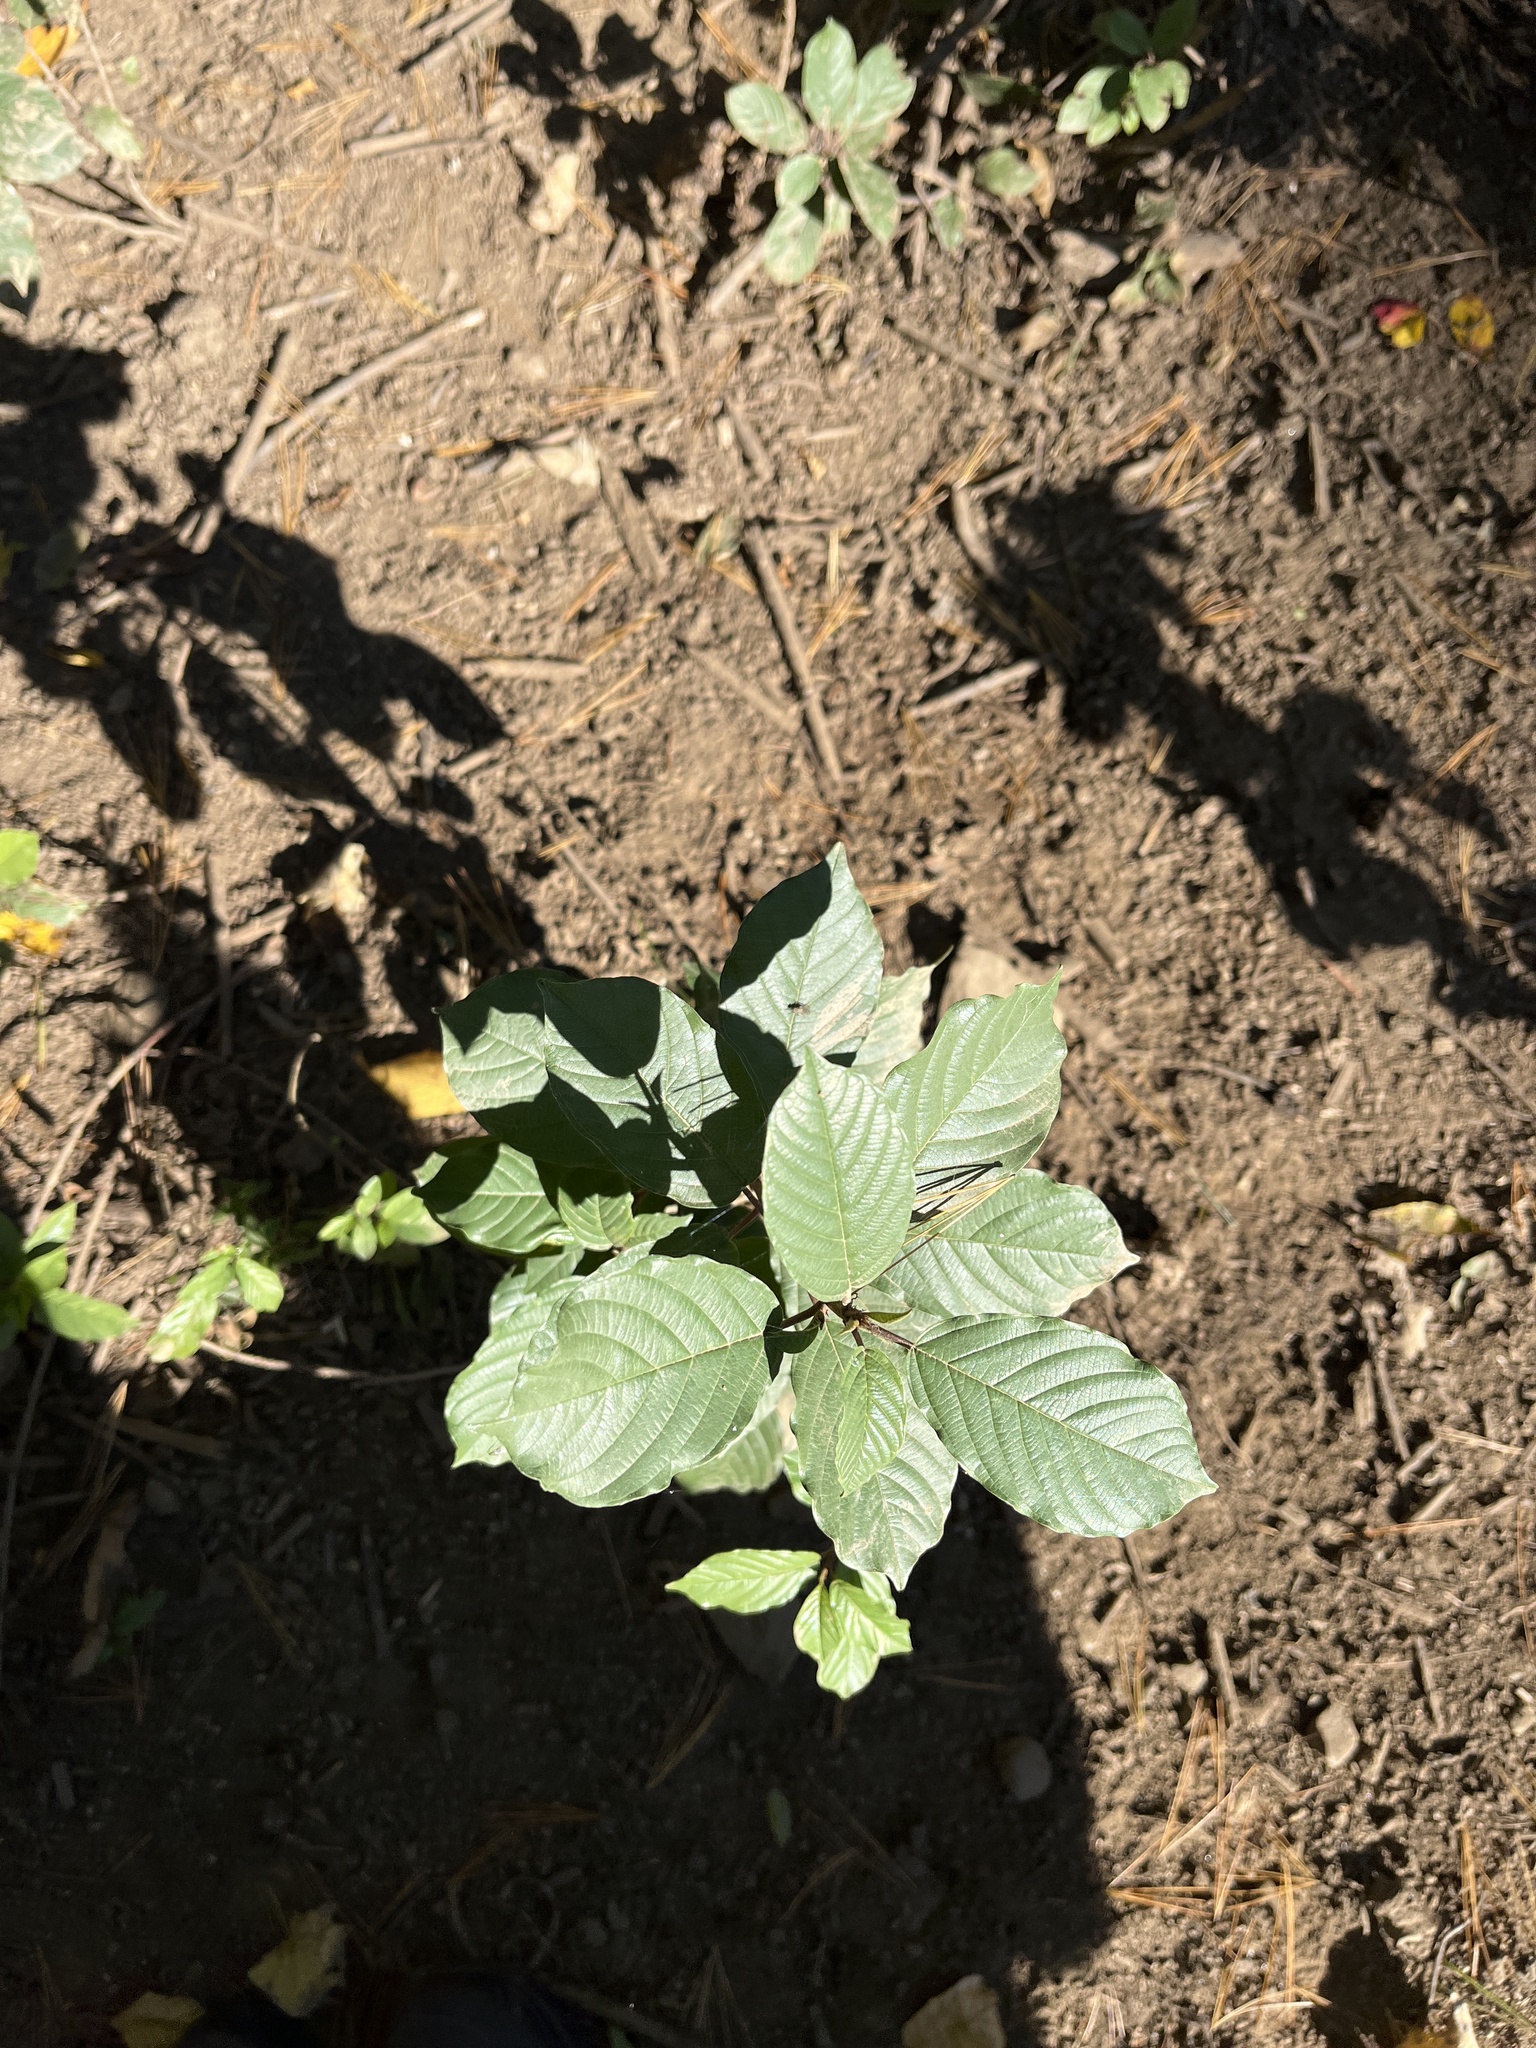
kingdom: Plantae
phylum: Tracheophyta
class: Magnoliopsida
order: Rosales
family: Rhamnaceae
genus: Frangula
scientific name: Frangula alnus
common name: Alder buckthorn
